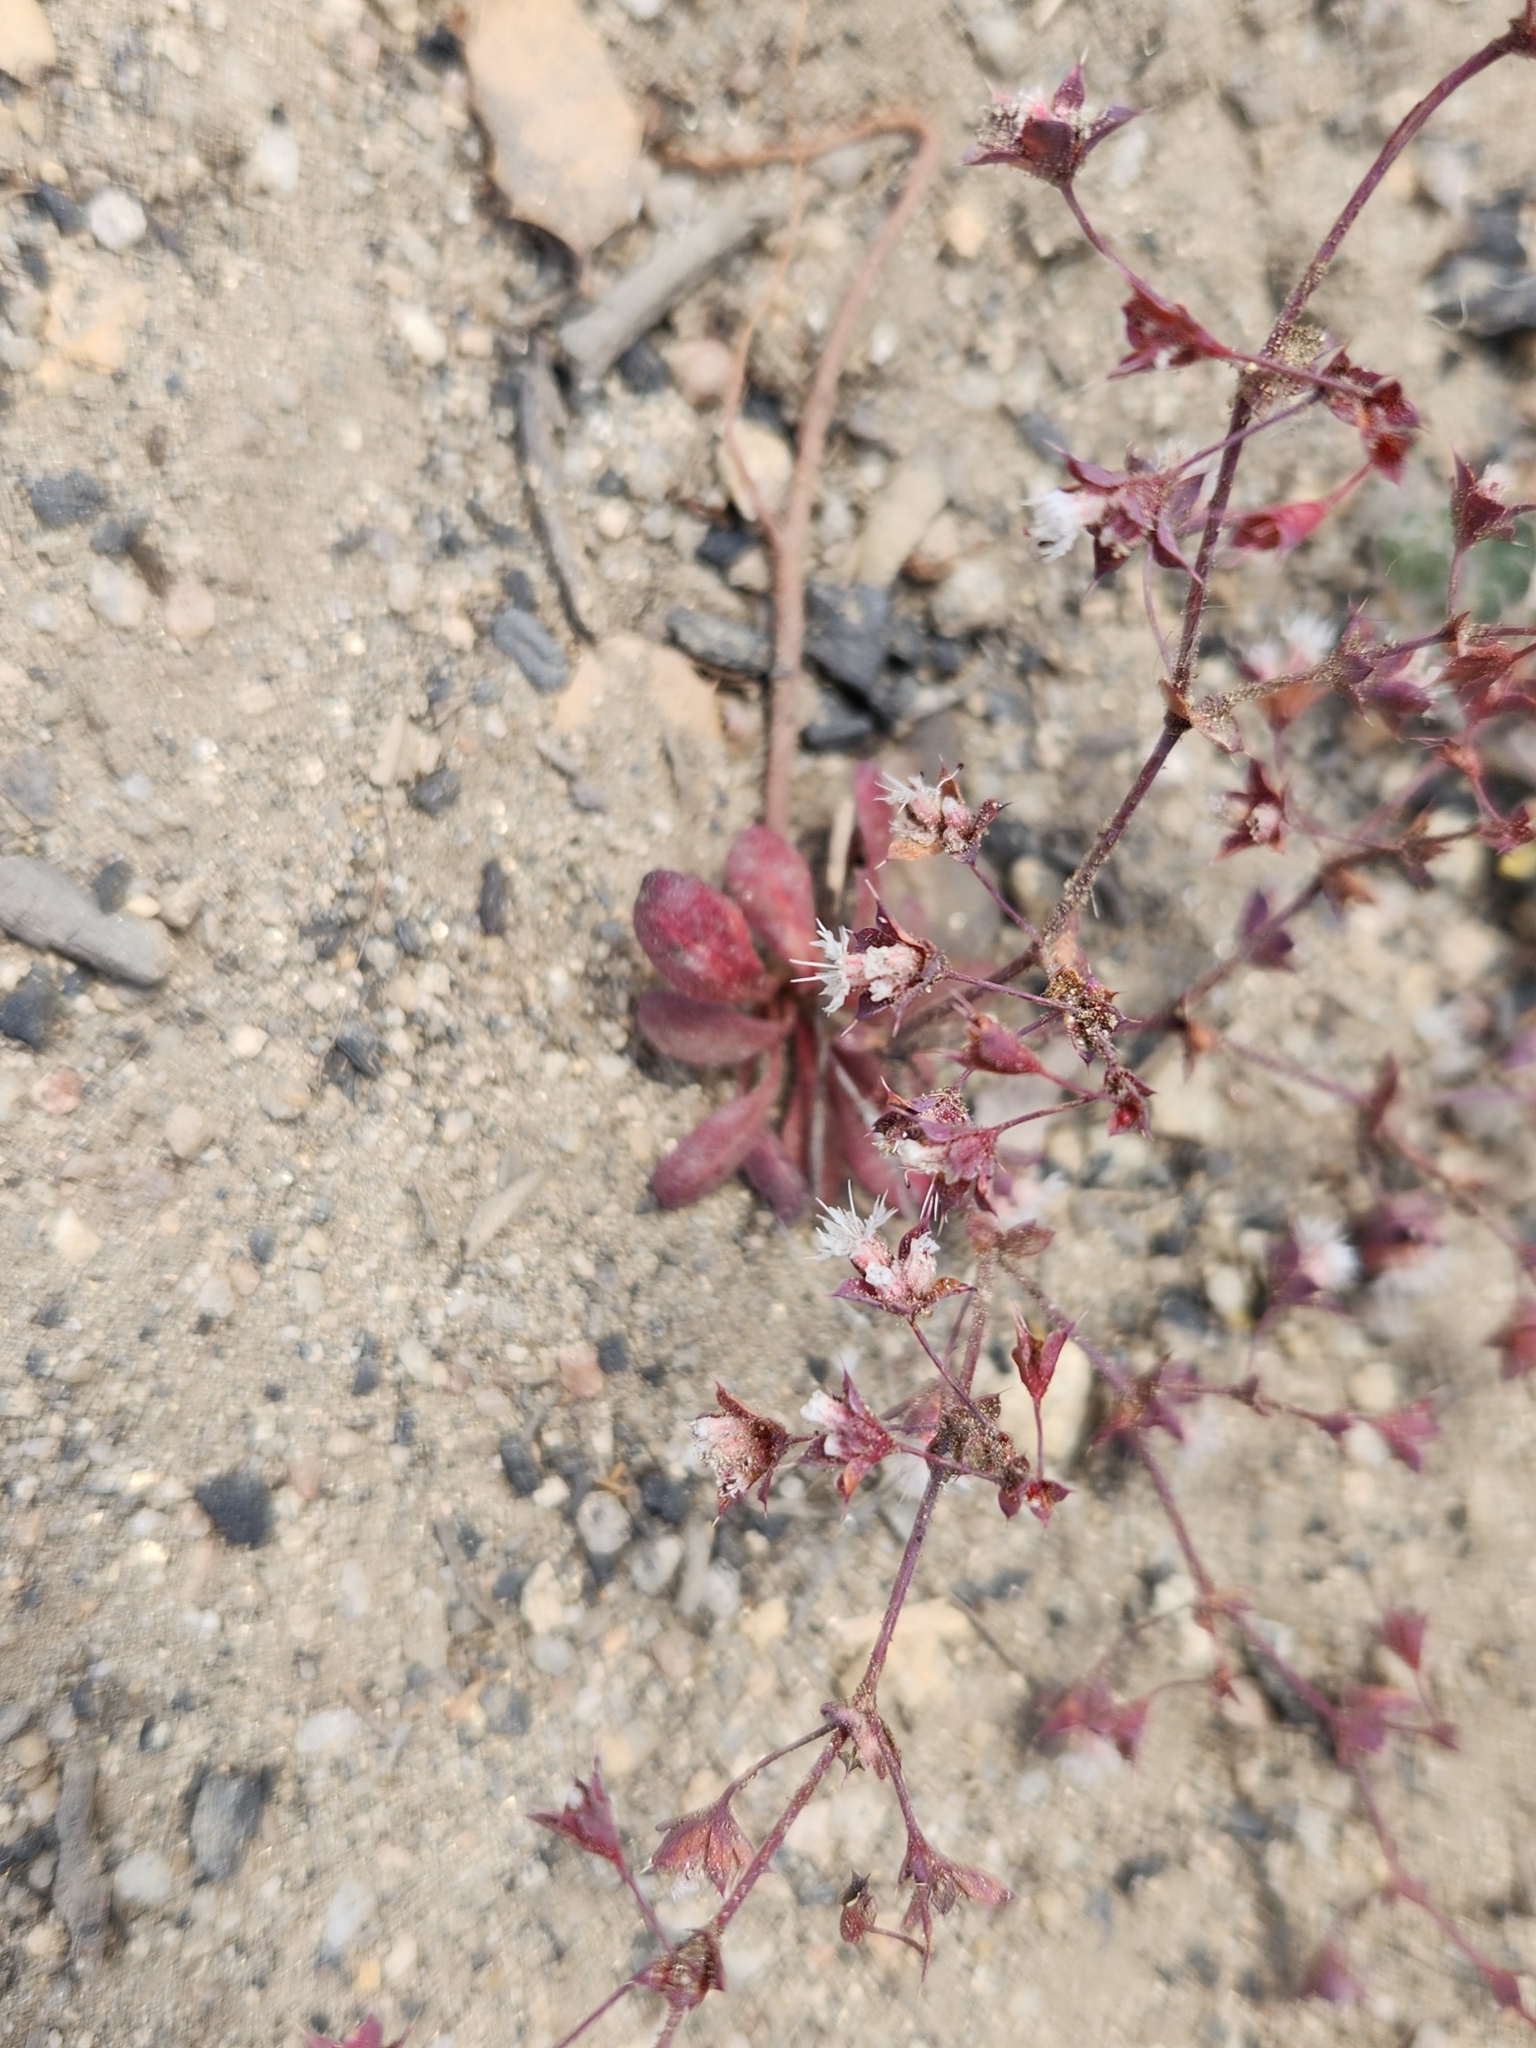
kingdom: Plantae
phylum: Tracheophyta
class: Magnoliopsida
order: Caryophyllales
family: Polygonaceae
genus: Sidotheca
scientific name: Sidotheca trilobata
